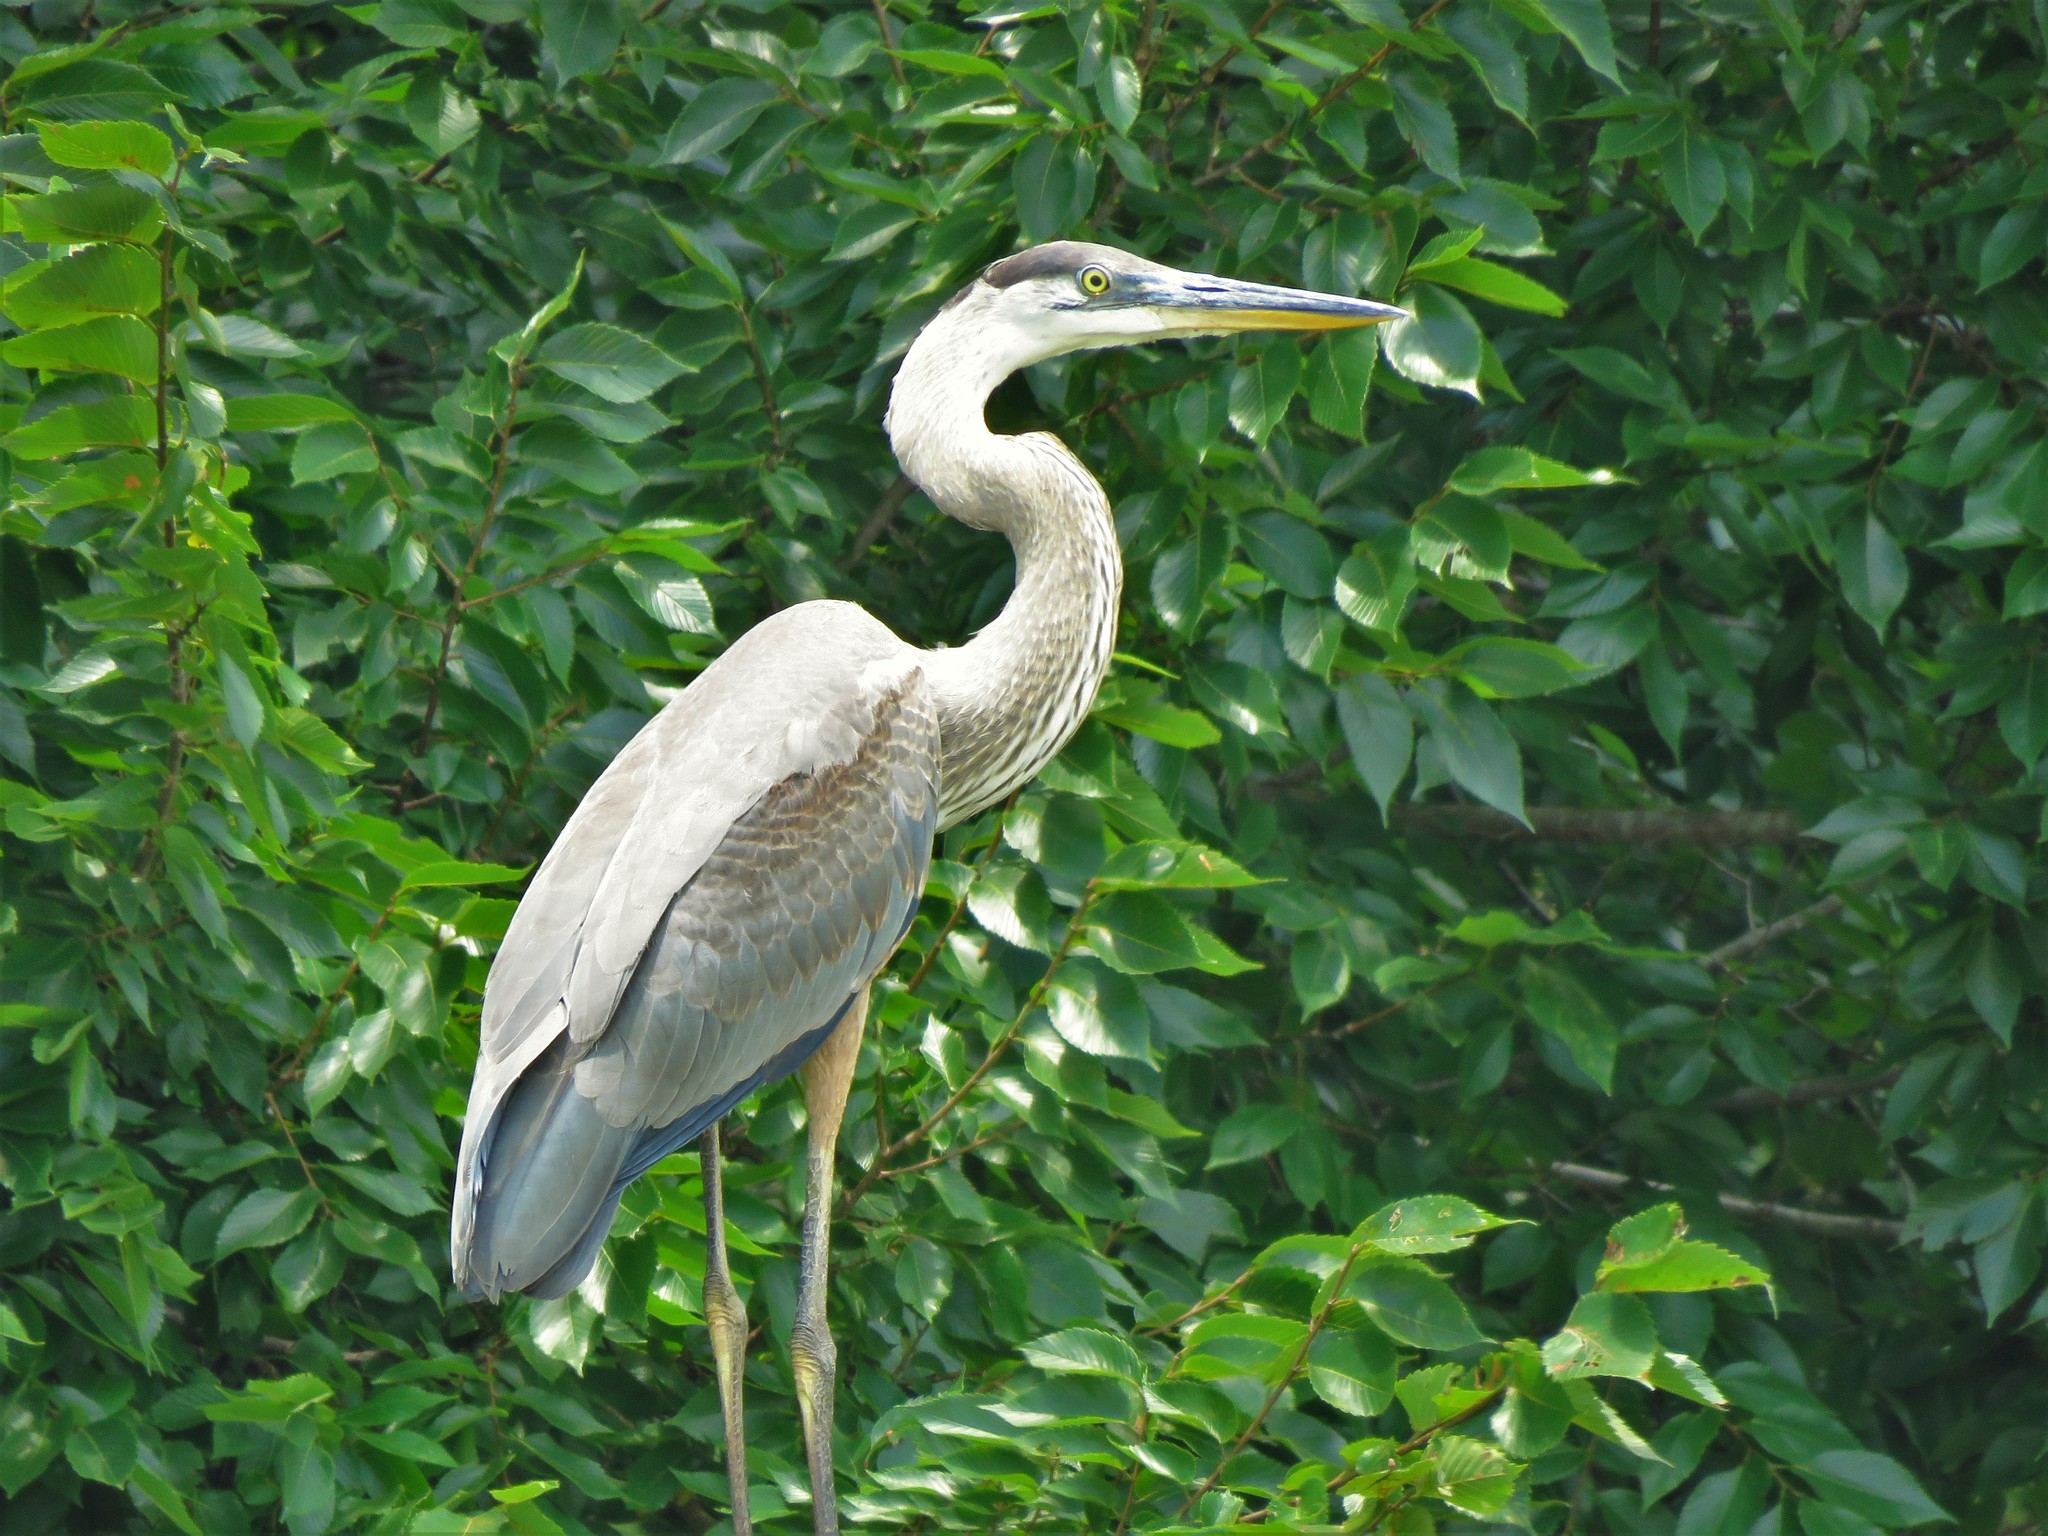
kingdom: Animalia
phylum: Chordata
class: Aves
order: Pelecaniformes
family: Ardeidae
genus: Ardea
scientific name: Ardea herodias
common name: Great blue heron
